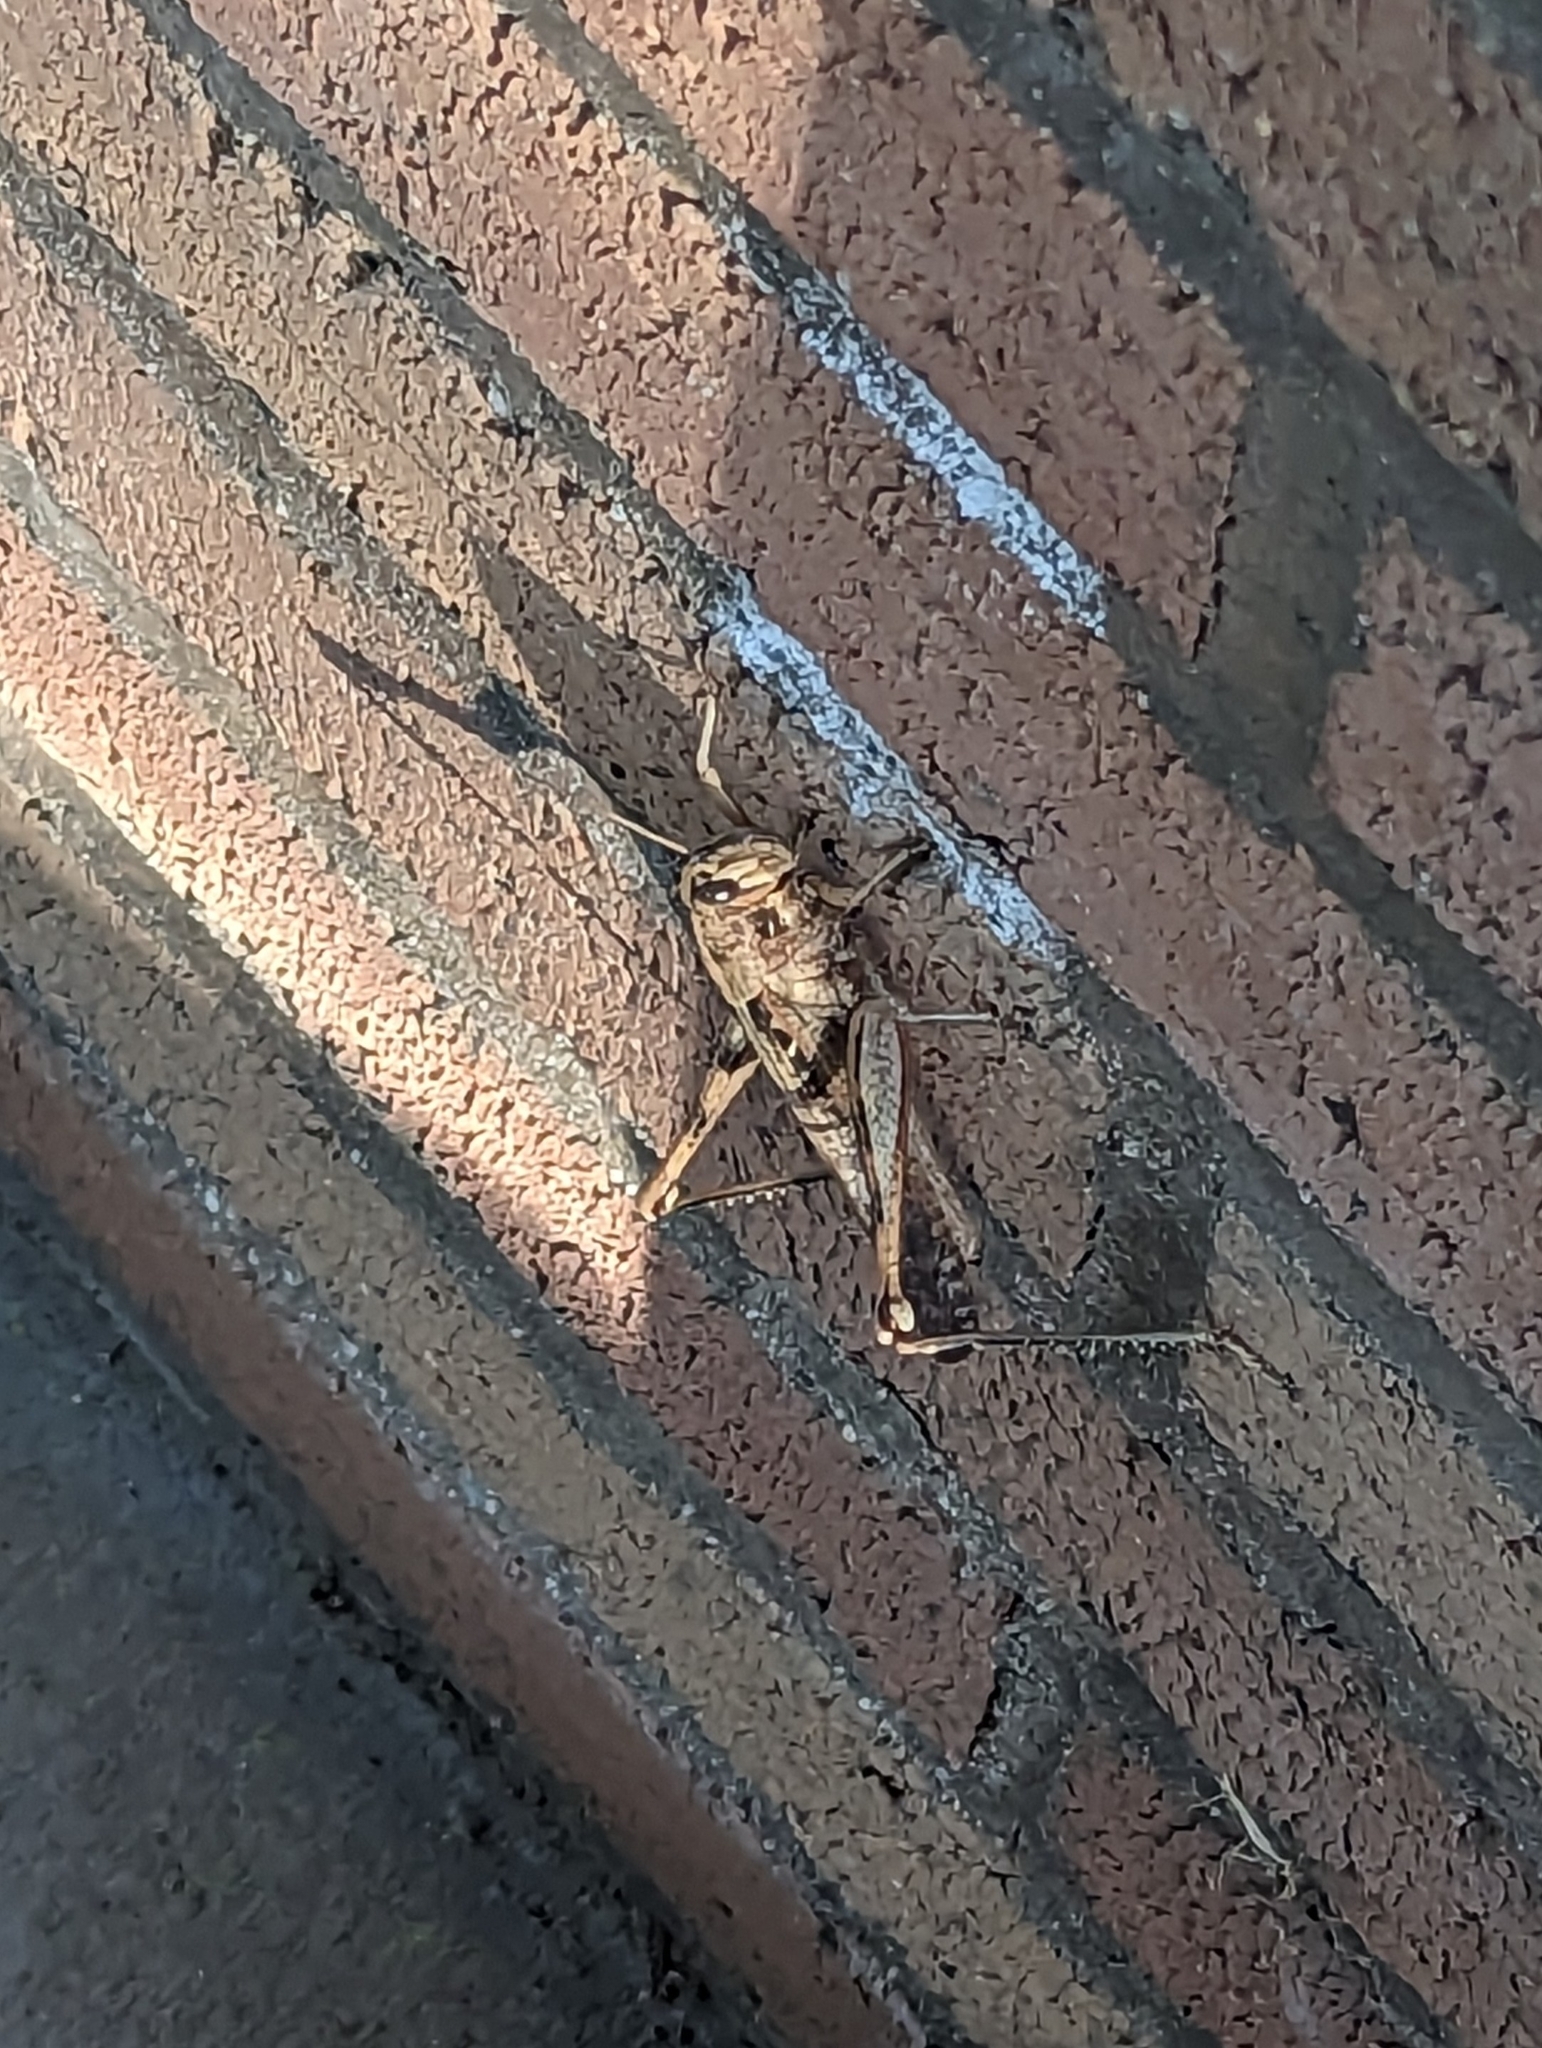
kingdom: Animalia
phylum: Arthropoda
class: Insecta
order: Orthoptera
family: Acrididae
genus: Schistocerca
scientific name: Schistocerca nitens
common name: Vagrant grasshopper
